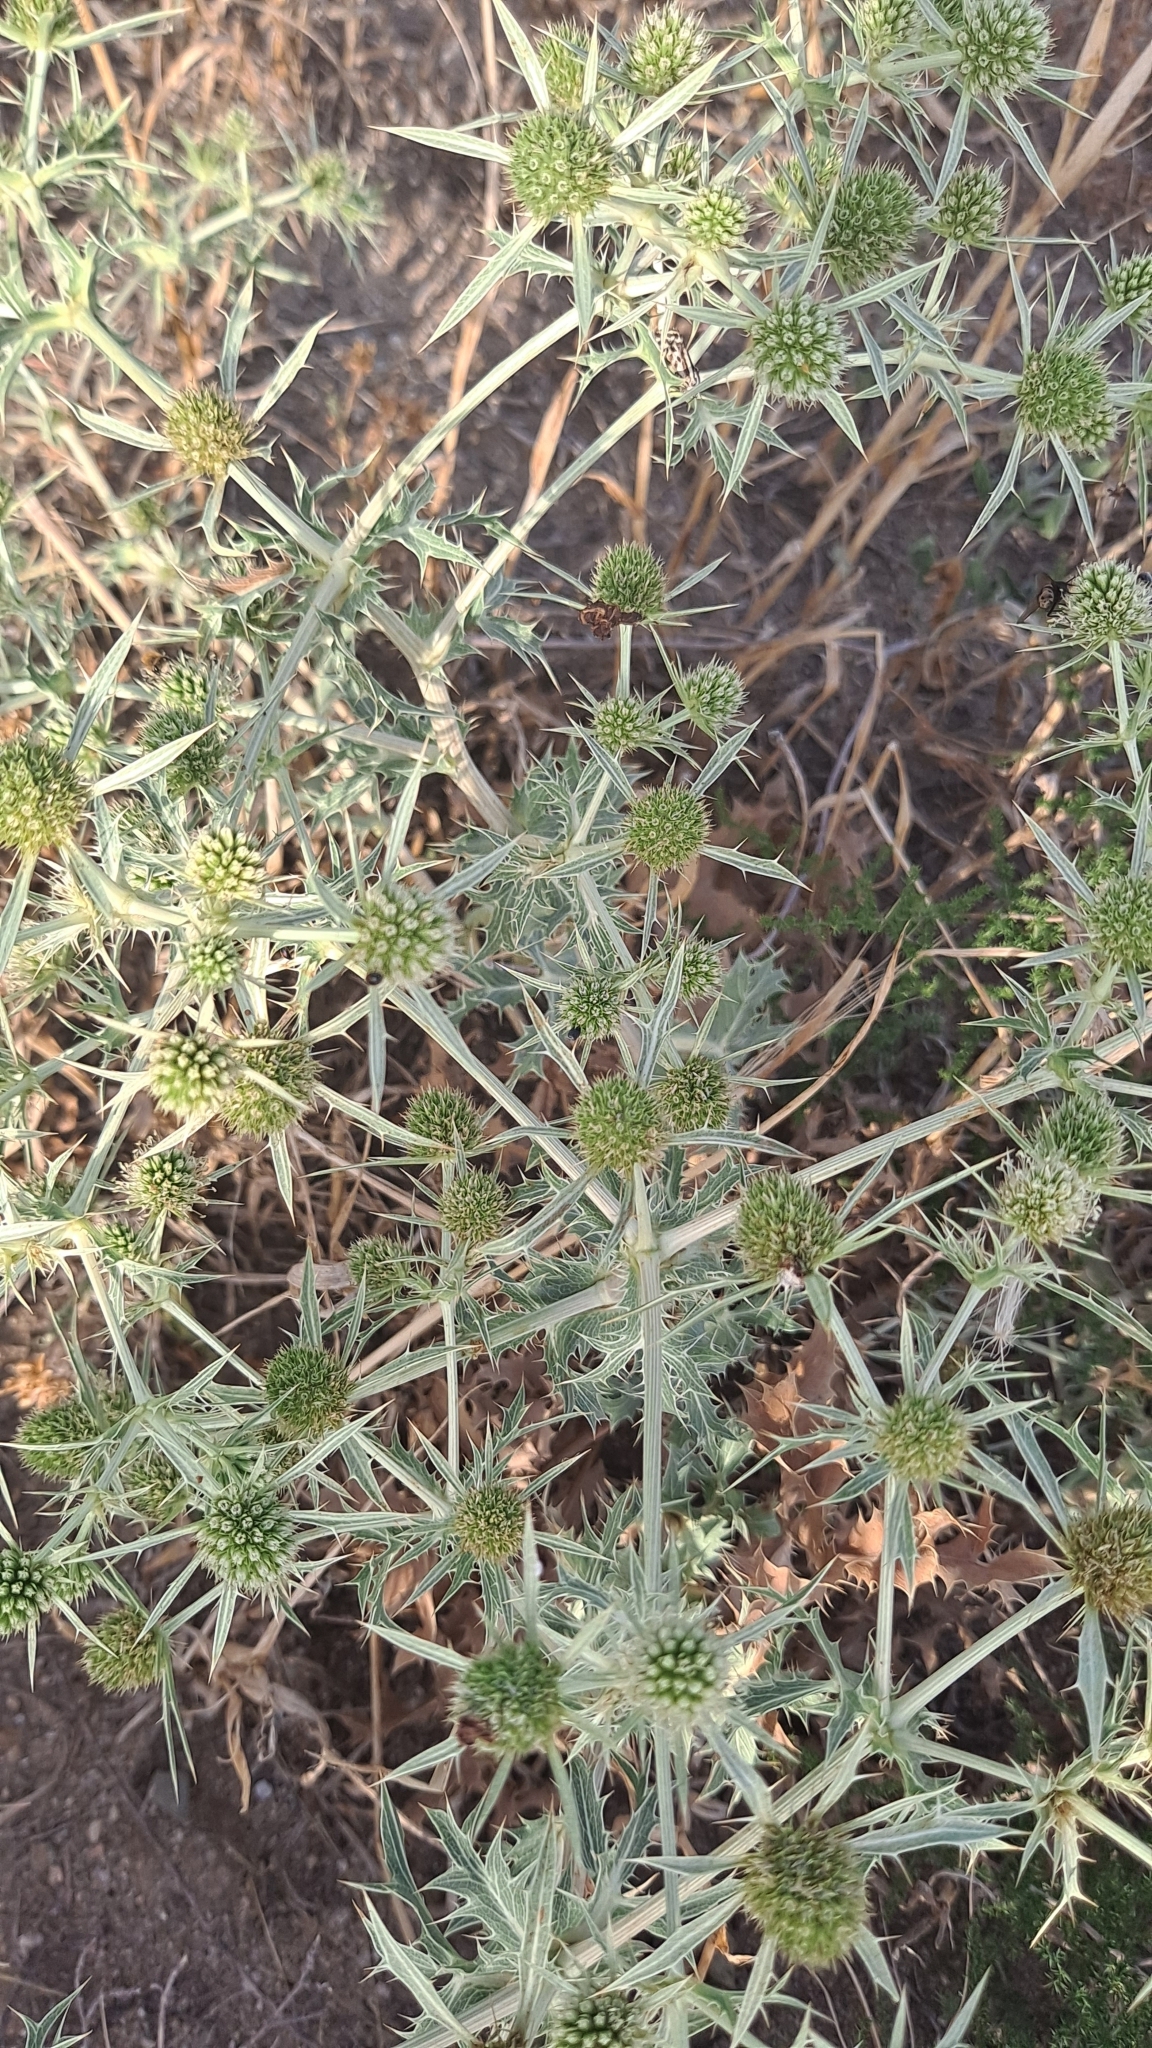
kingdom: Plantae
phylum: Tracheophyta
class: Magnoliopsida
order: Apiales
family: Apiaceae
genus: Eryngium
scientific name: Eryngium campestre
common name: Field eryngo
